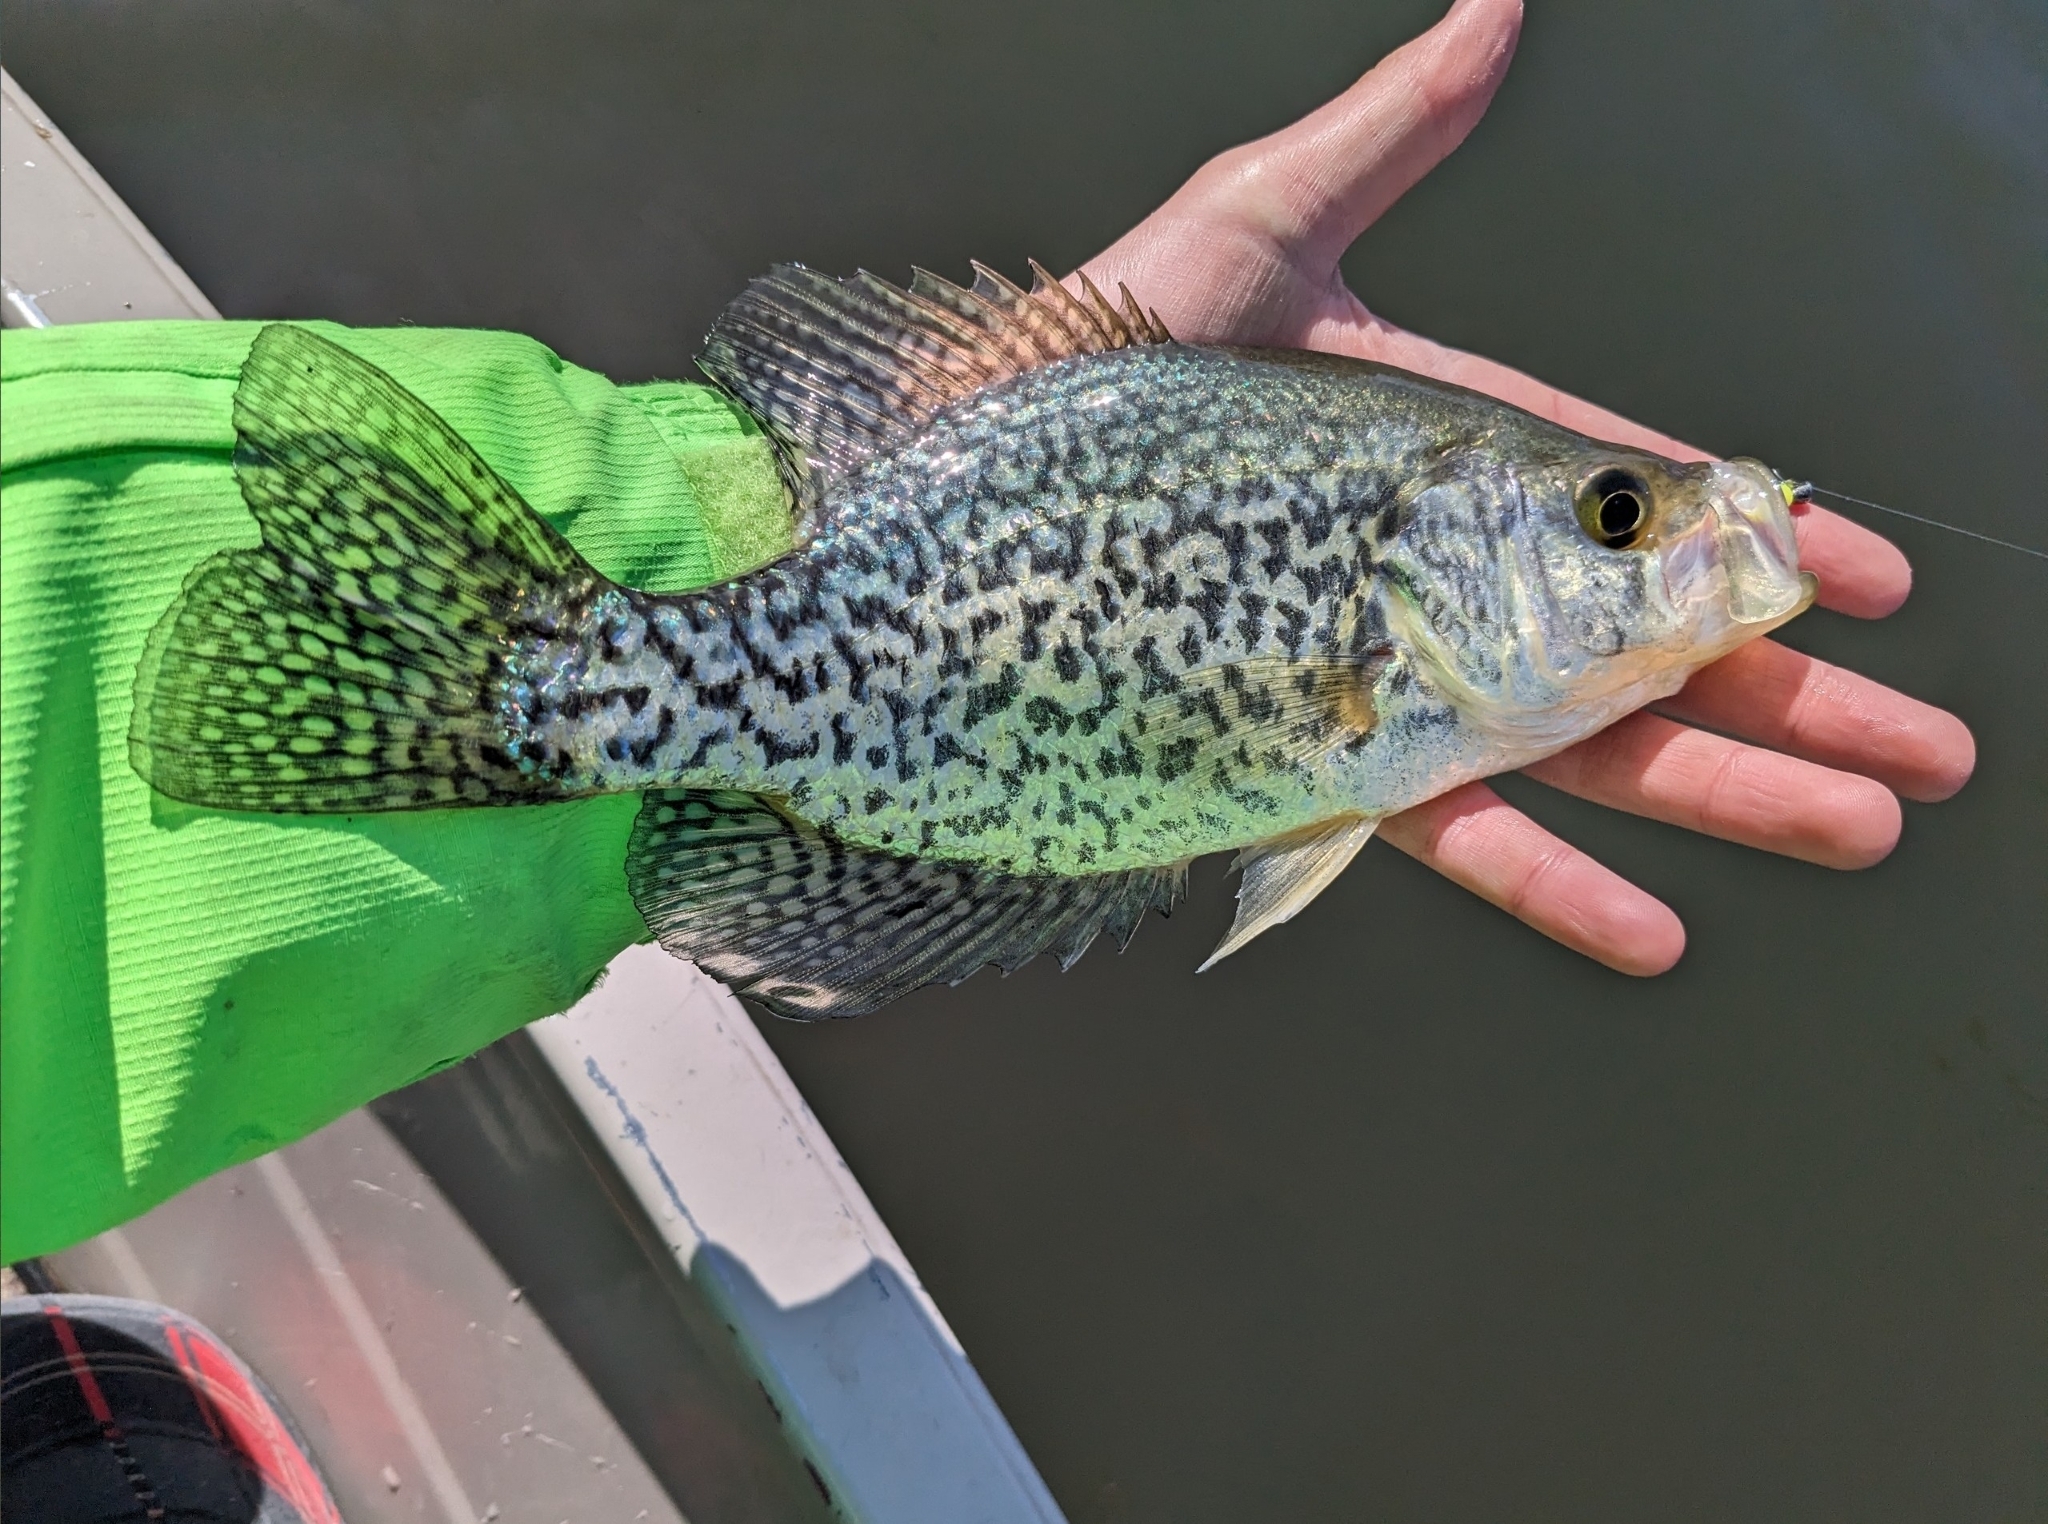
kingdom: Animalia
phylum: Chordata
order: Perciformes
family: Centrarchidae
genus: Pomoxis
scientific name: Pomoxis nigromaculatus
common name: Black crappie
